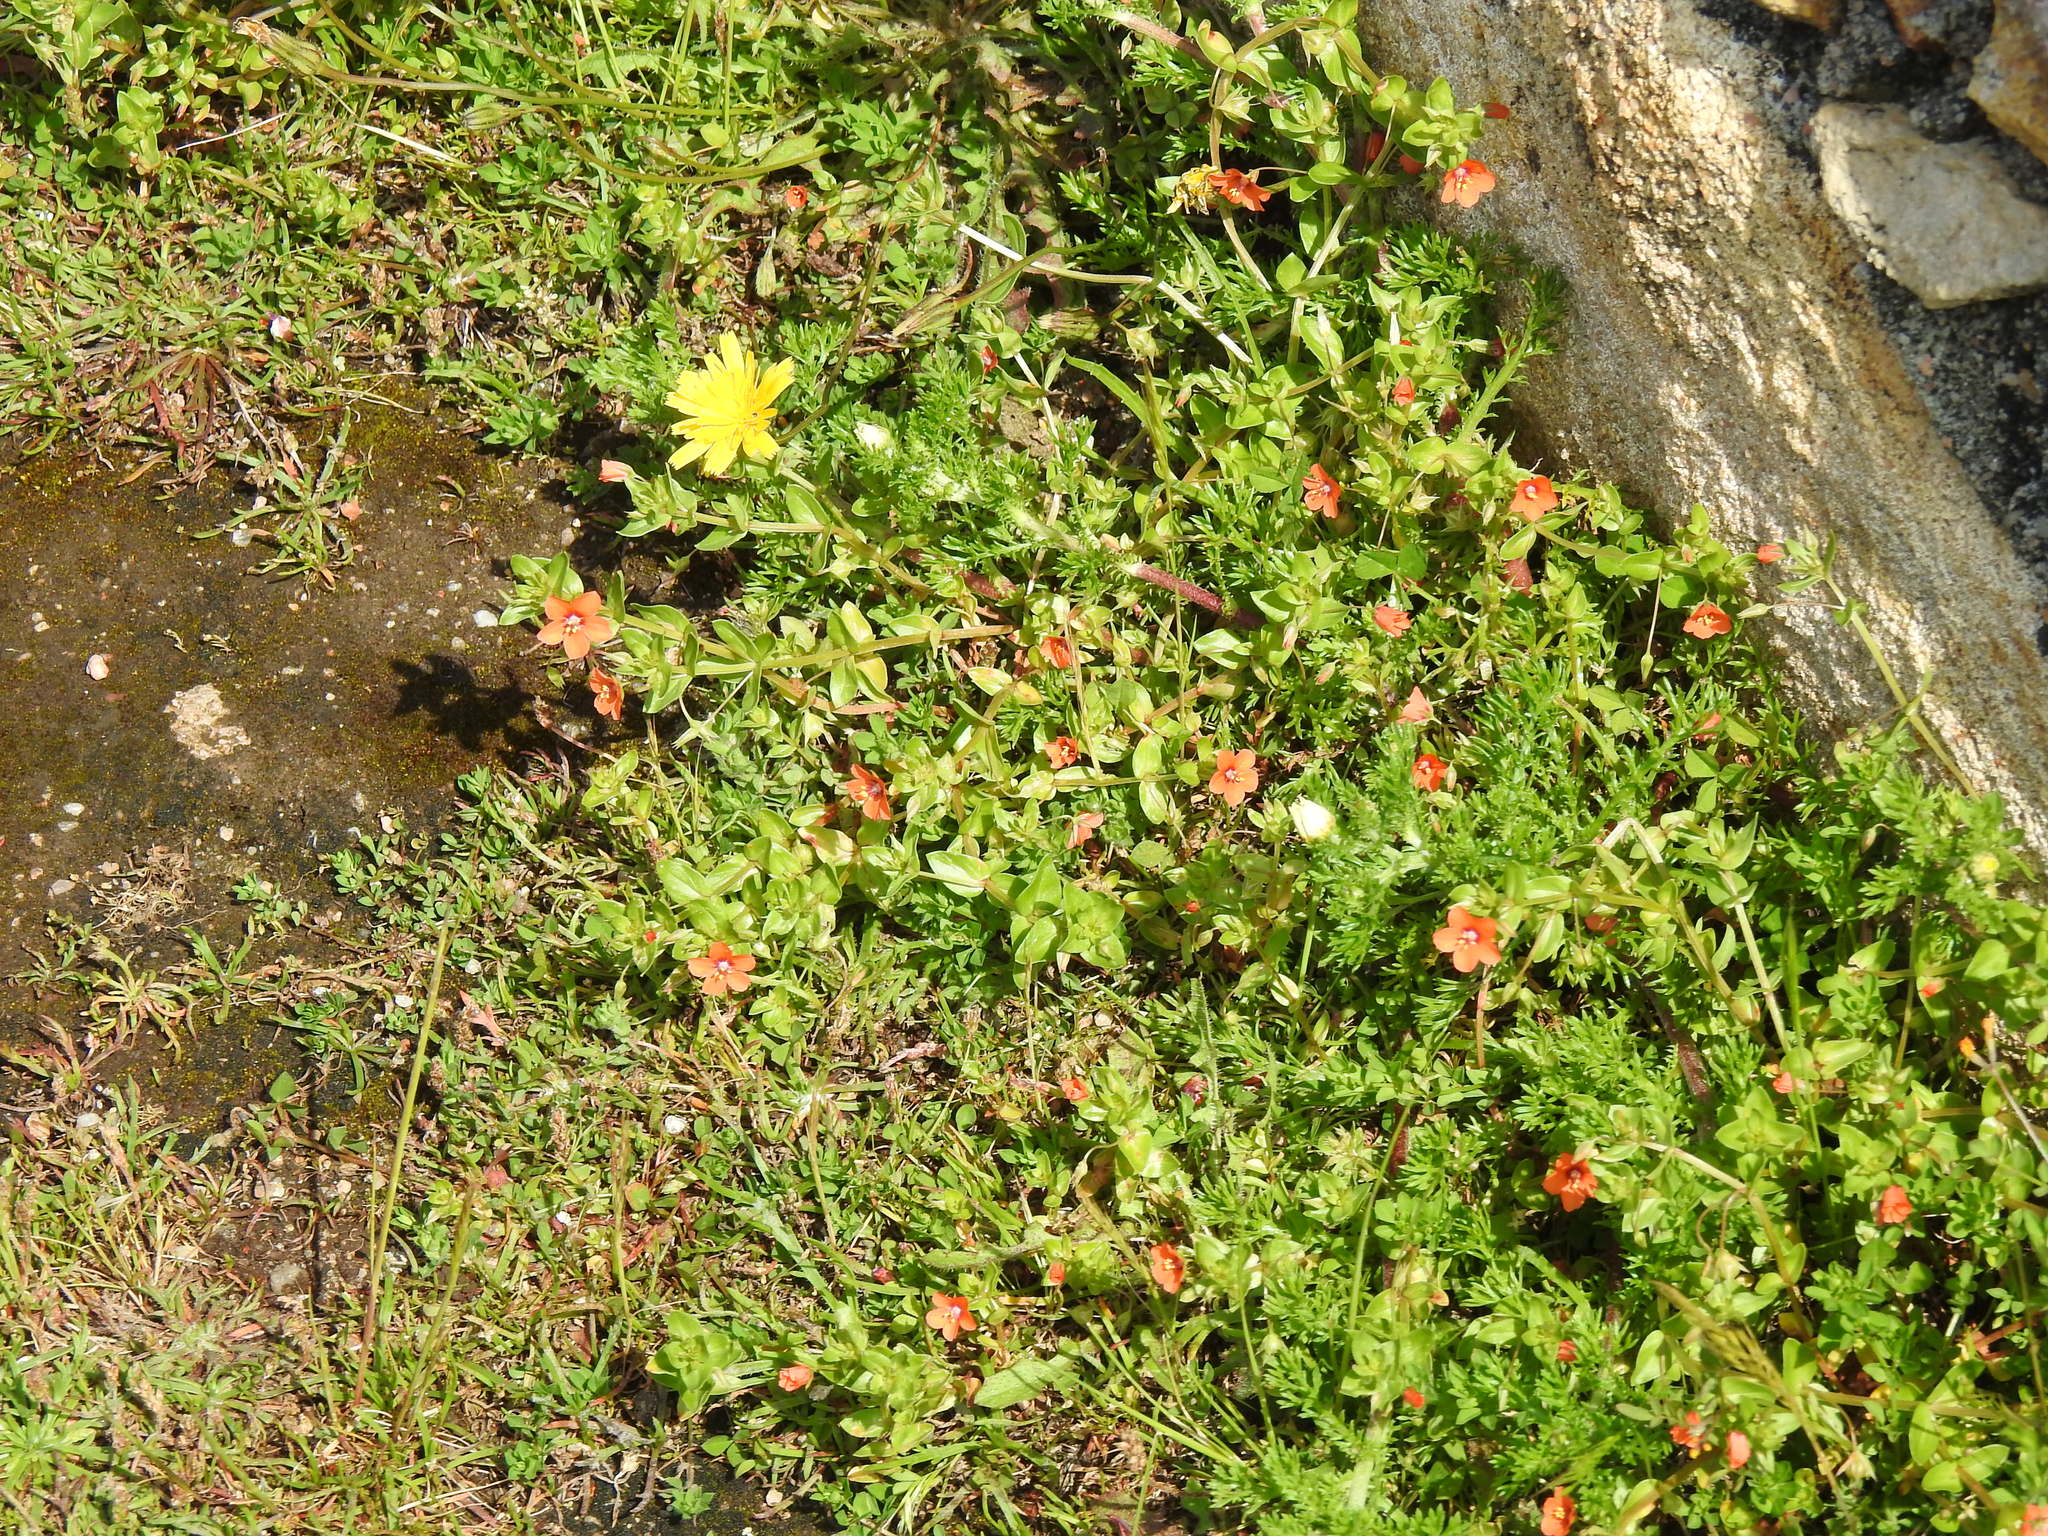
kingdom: Plantae
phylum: Tracheophyta
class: Magnoliopsida
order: Ericales
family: Primulaceae
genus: Lysimachia
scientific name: Lysimachia arvensis
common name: Scarlet pimpernel
